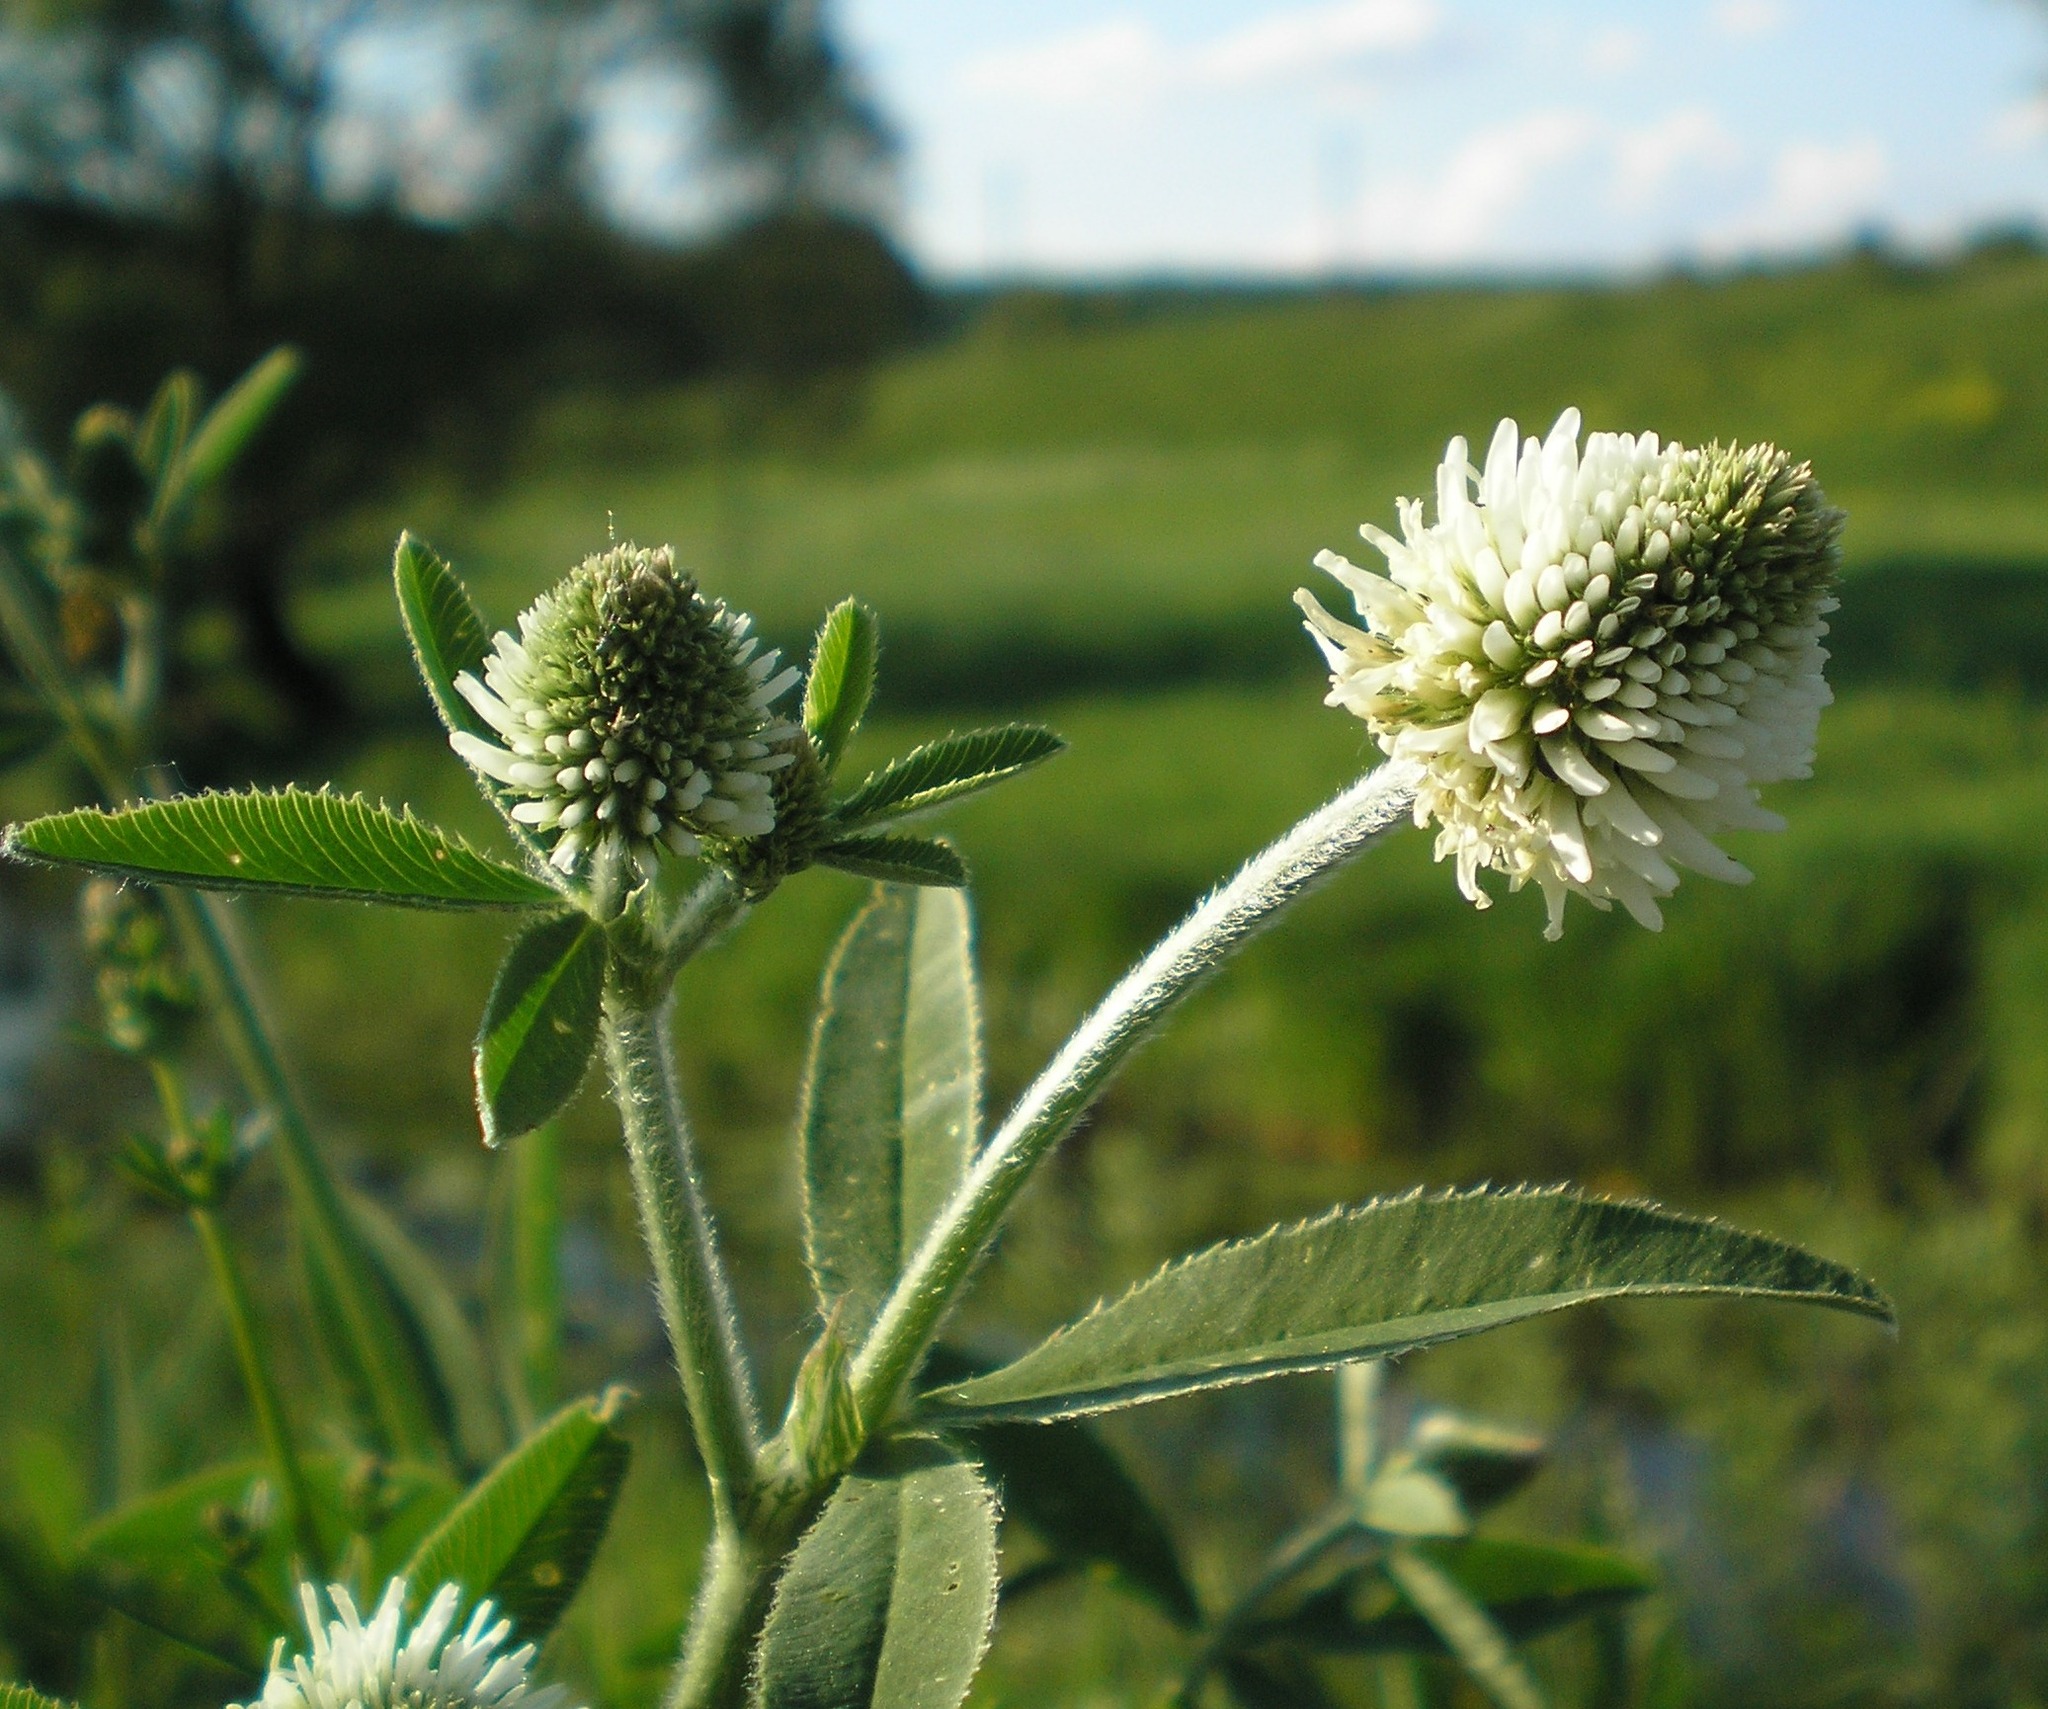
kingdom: Plantae
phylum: Tracheophyta
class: Magnoliopsida
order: Fabales
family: Fabaceae
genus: Trifolium
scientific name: Trifolium montanum
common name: Mountain clover
